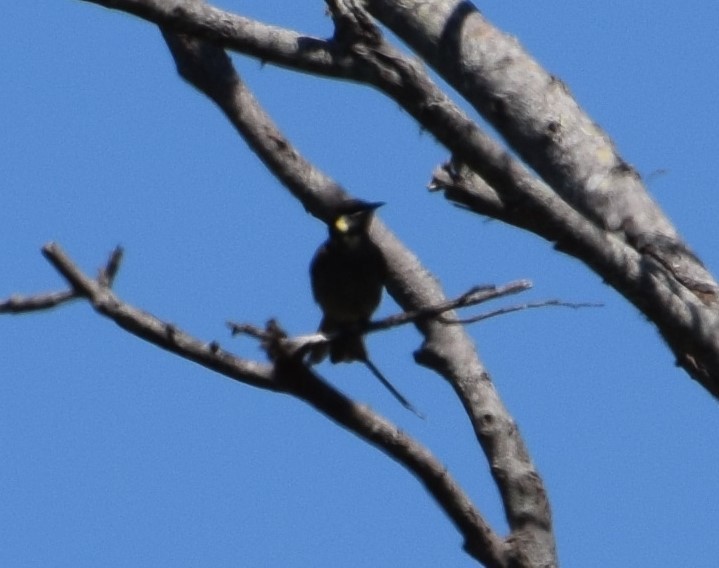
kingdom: Animalia
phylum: Chordata
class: Aves
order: Passeriformes
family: Meliphagidae
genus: Meliphaga
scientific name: Meliphaga lewinii
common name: Lewin's honeyeater
